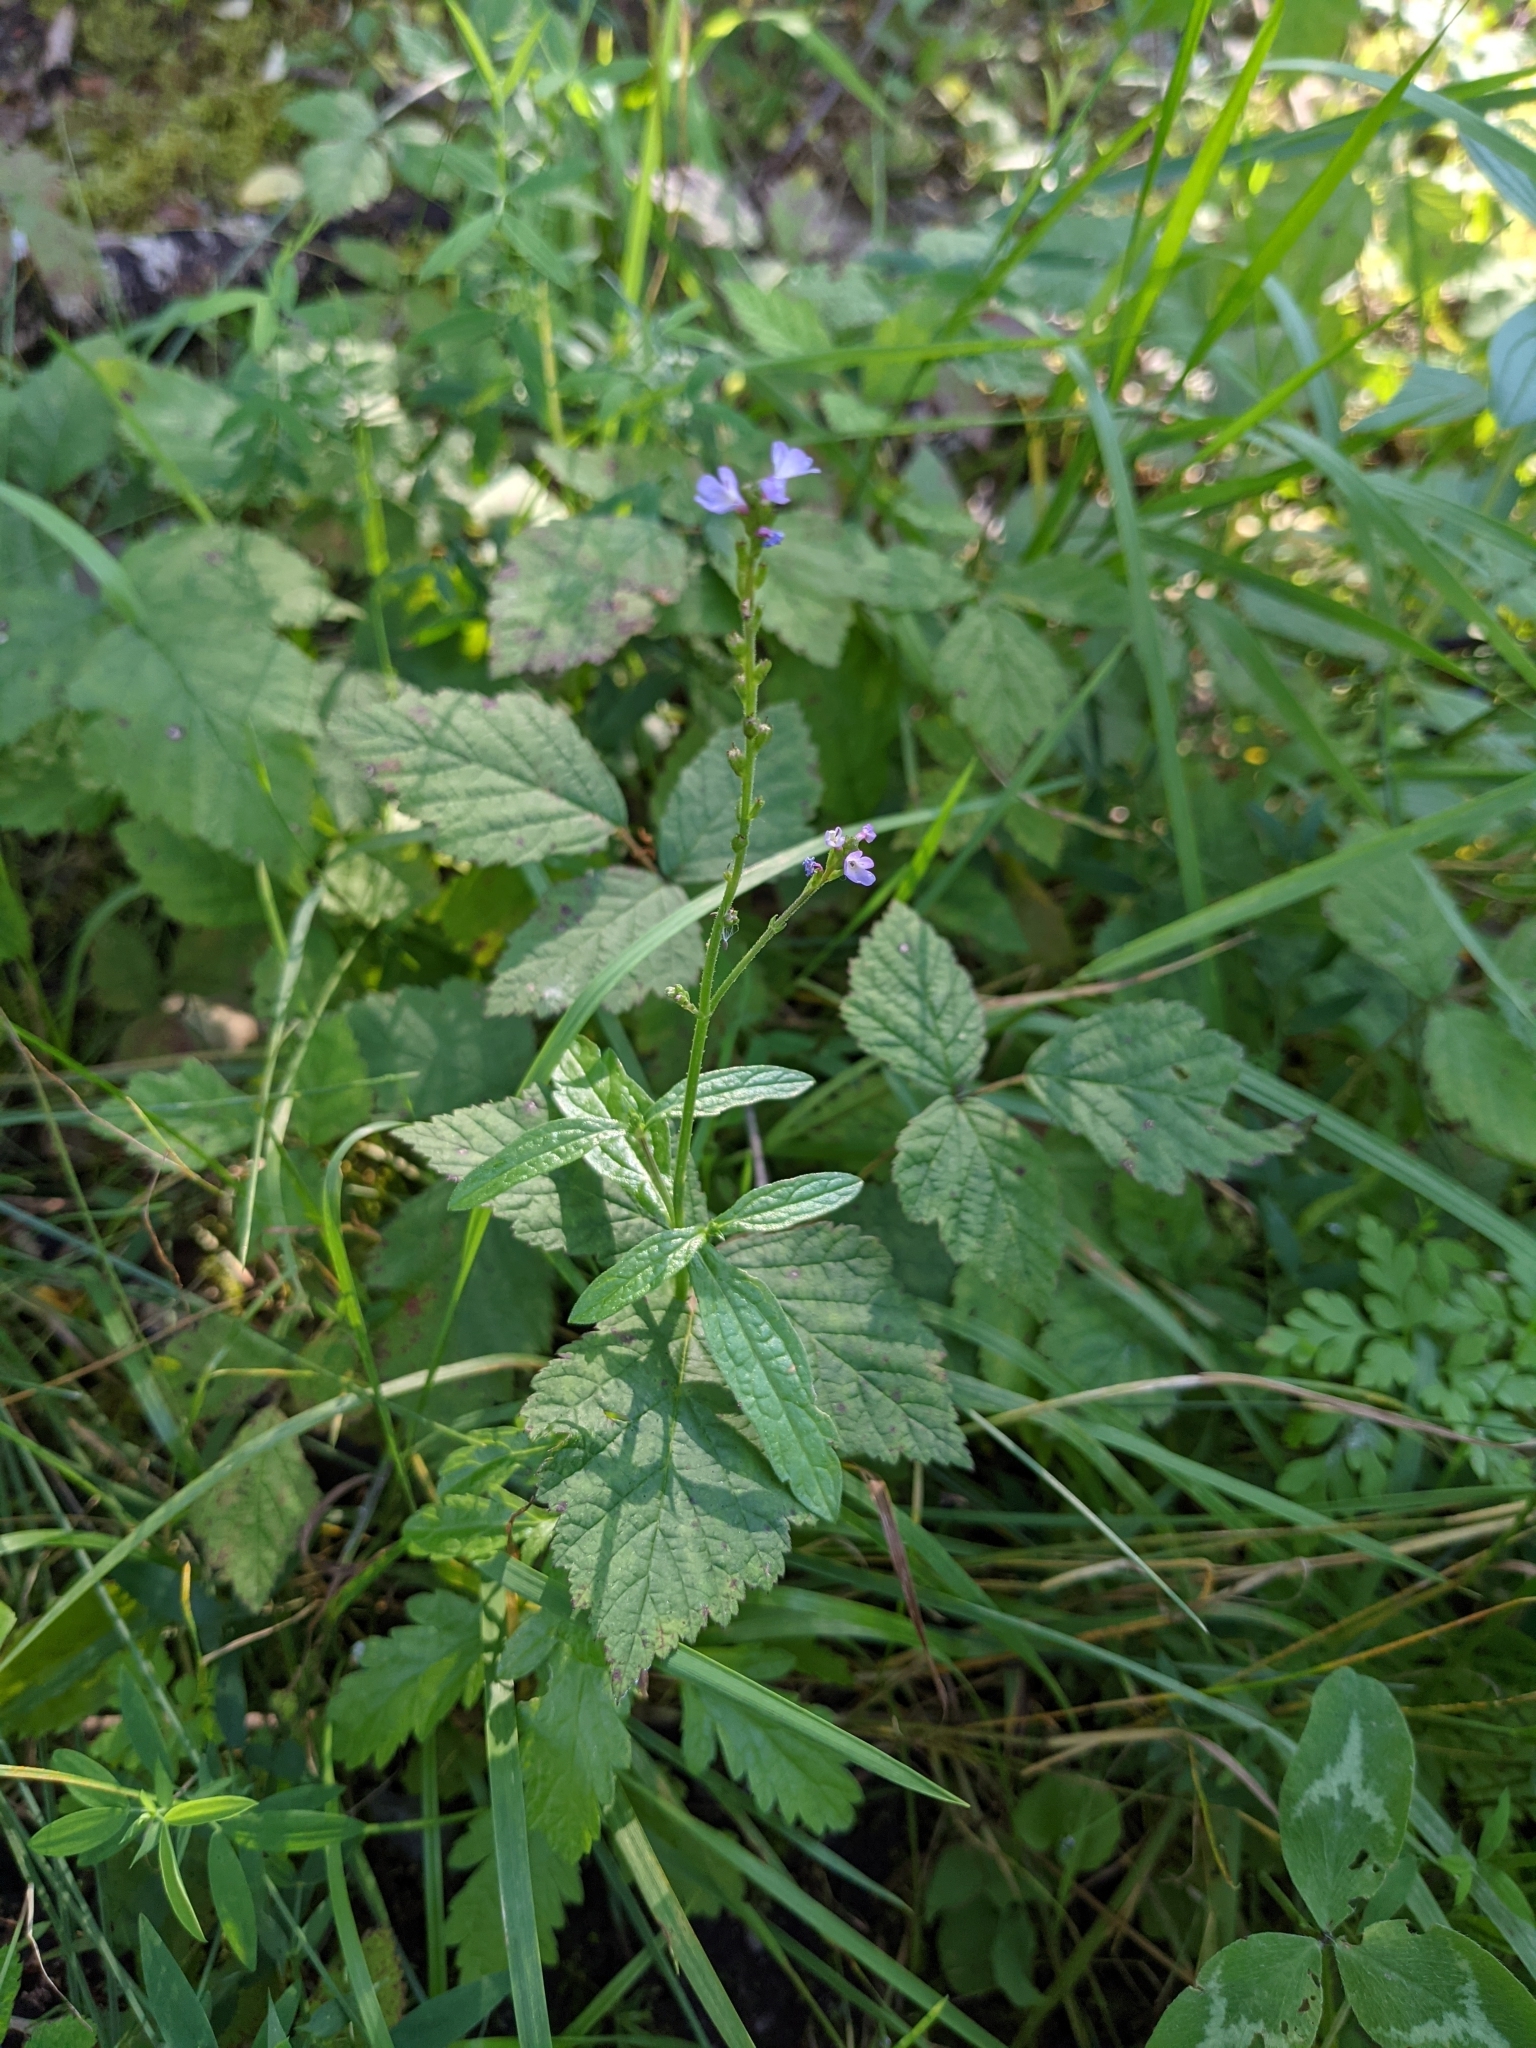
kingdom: Plantae
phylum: Tracheophyta
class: Magnoliopsida
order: Lamiales
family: Verbenaceae
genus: Verbena
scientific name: Verbena officinalis
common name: Vervain
